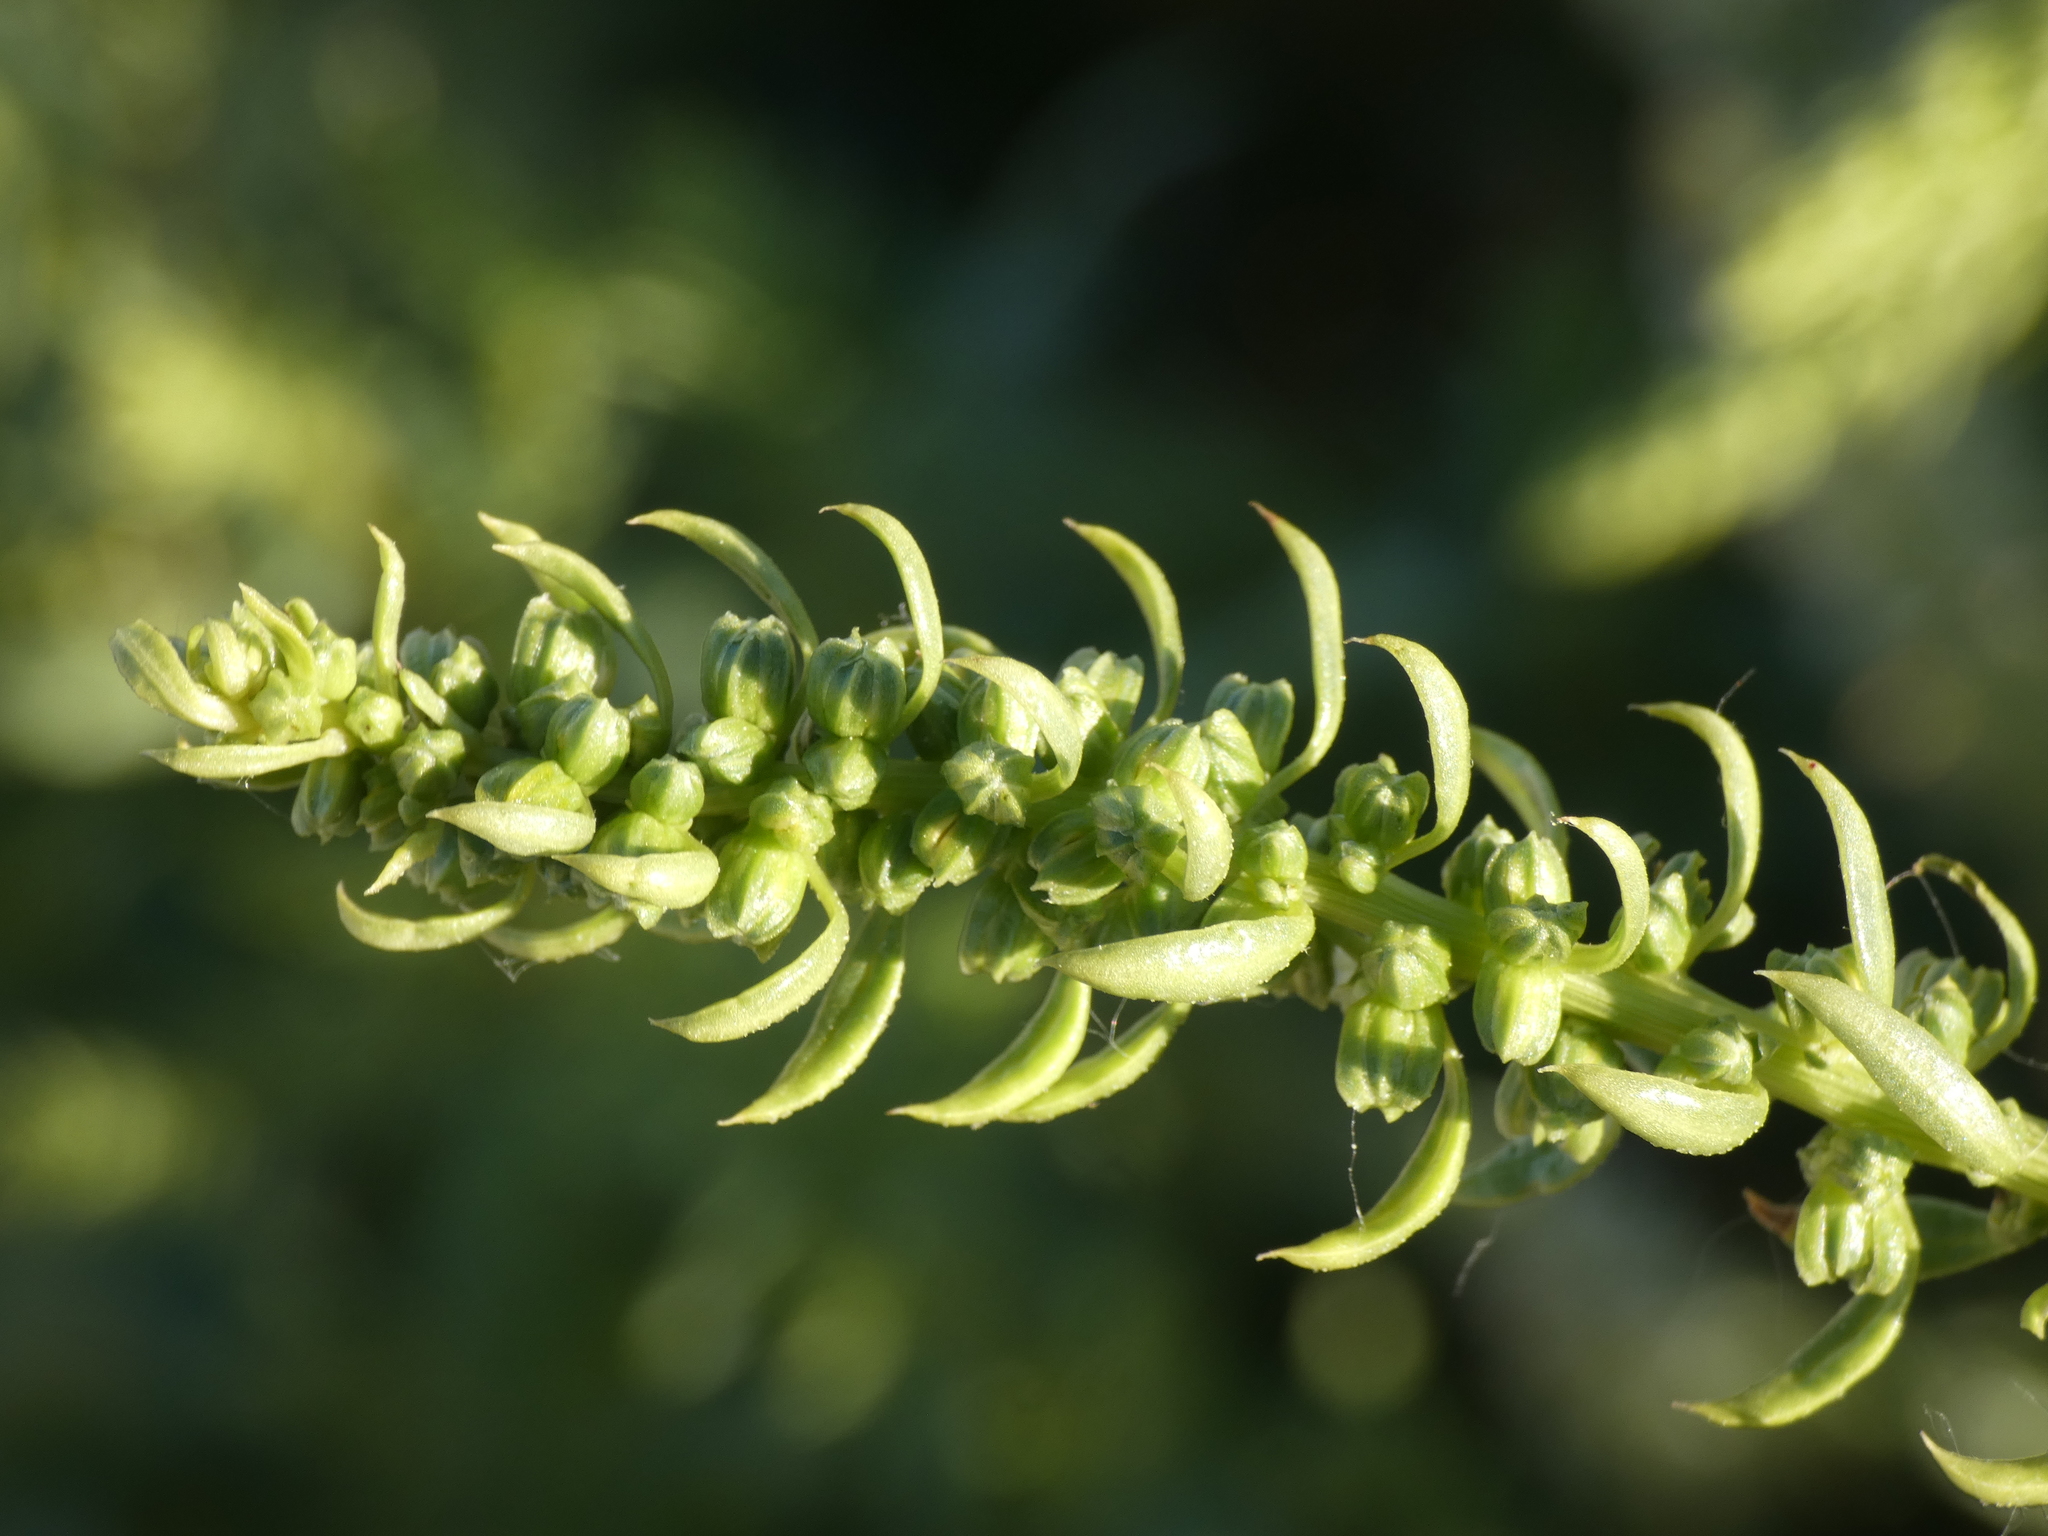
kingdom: Plantae
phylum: Tracheophyta
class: Magnoliopsida
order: Caryophyllales
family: Amaranthaceae
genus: Beta
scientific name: Beta vulgaris
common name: Beet
